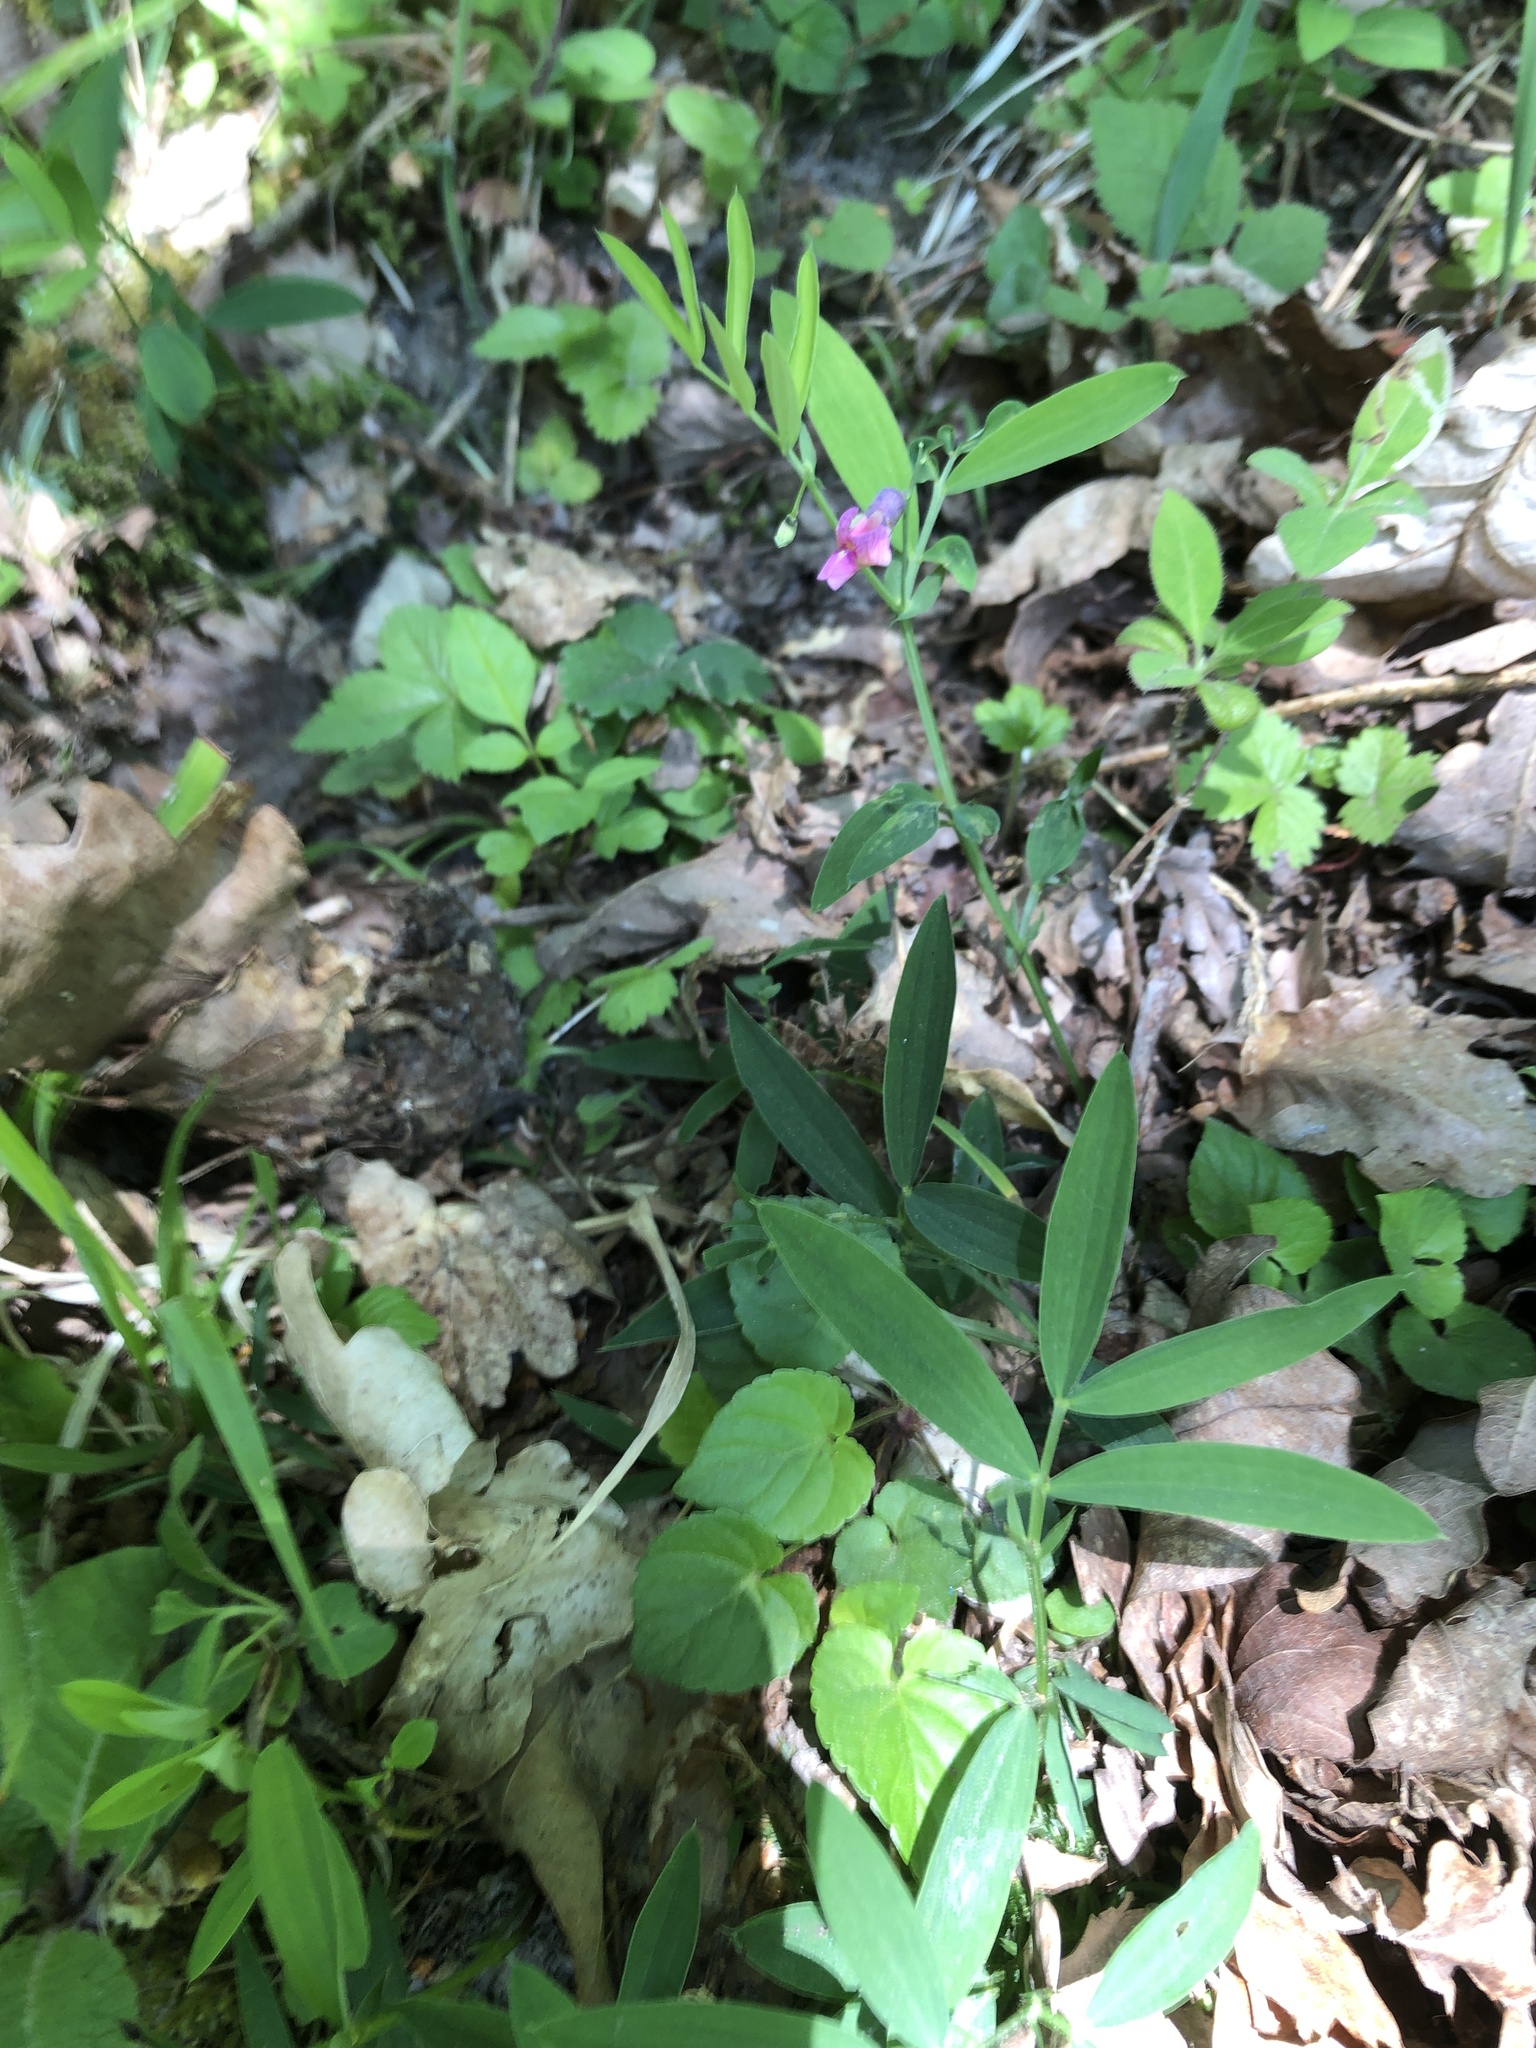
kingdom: Plantae
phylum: Tracheophyta
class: Magnoliopsida
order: Fabales
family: Fabaceae
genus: Lathyrus
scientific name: Lathyrus linifolius
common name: Bitter-vetch
